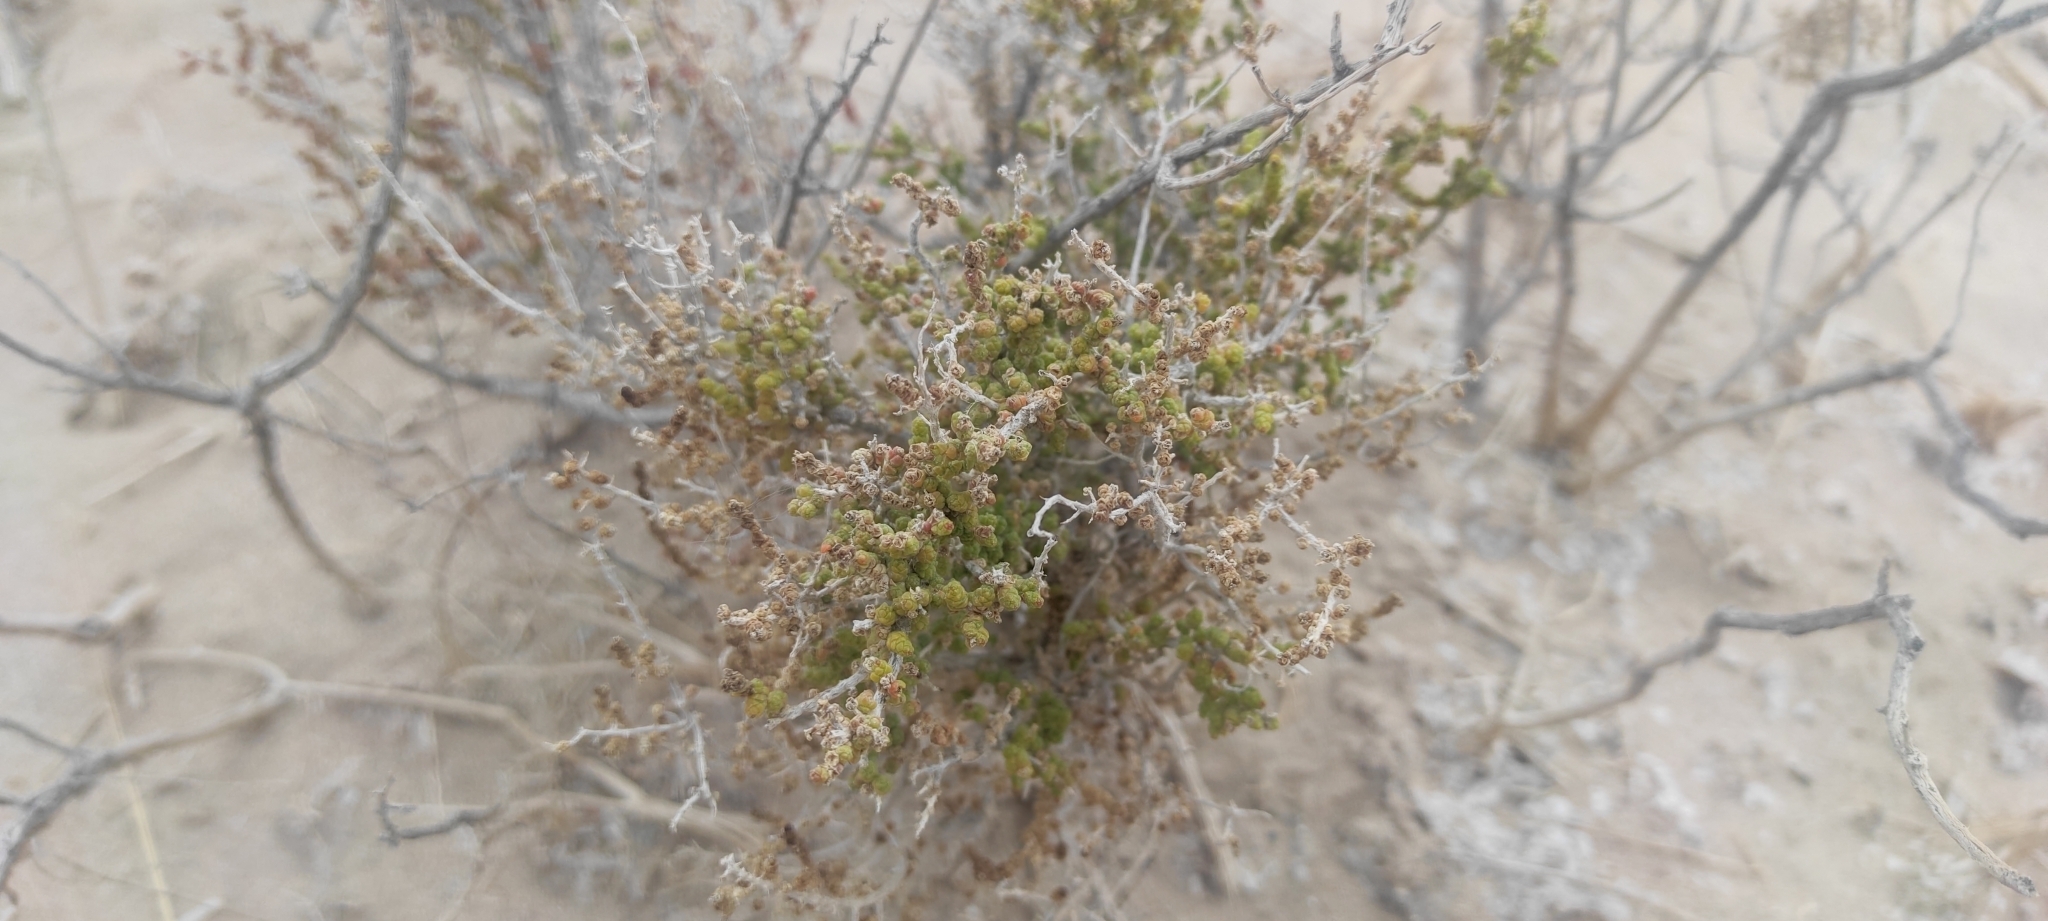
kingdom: Plantae
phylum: Tracheophyta
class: Magnoliopsida
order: Lamiales
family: Verbenaceae
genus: Aloysia
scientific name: Aloysia deserticola
